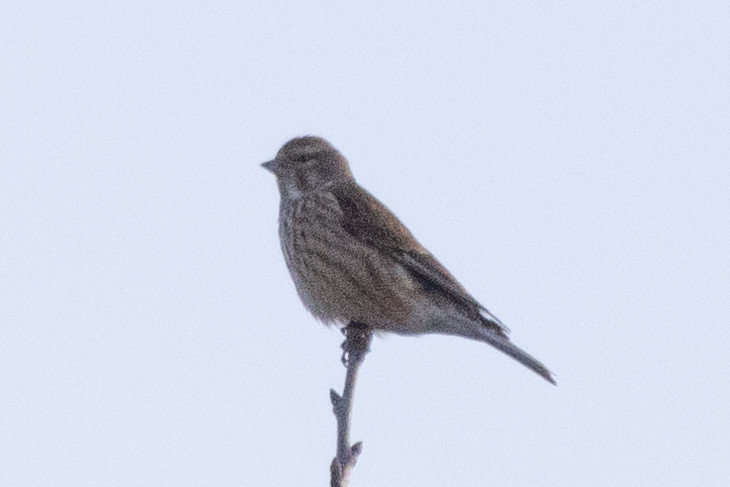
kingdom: Animalia
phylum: Chordata
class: Aves
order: Passeriformes
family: Fringillidae
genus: Linaria
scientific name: Linaria cannabina
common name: Common linnet
